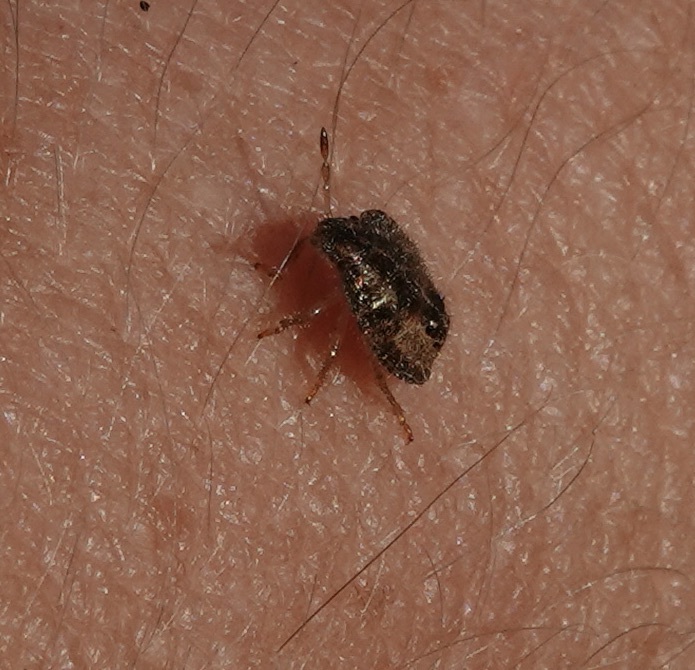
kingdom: Animalia
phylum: Arthropoda
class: Insecta
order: Hemiptera
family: Pentatomidae
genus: Dolycoris
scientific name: Dolycoris baccarum
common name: Sloe bug
